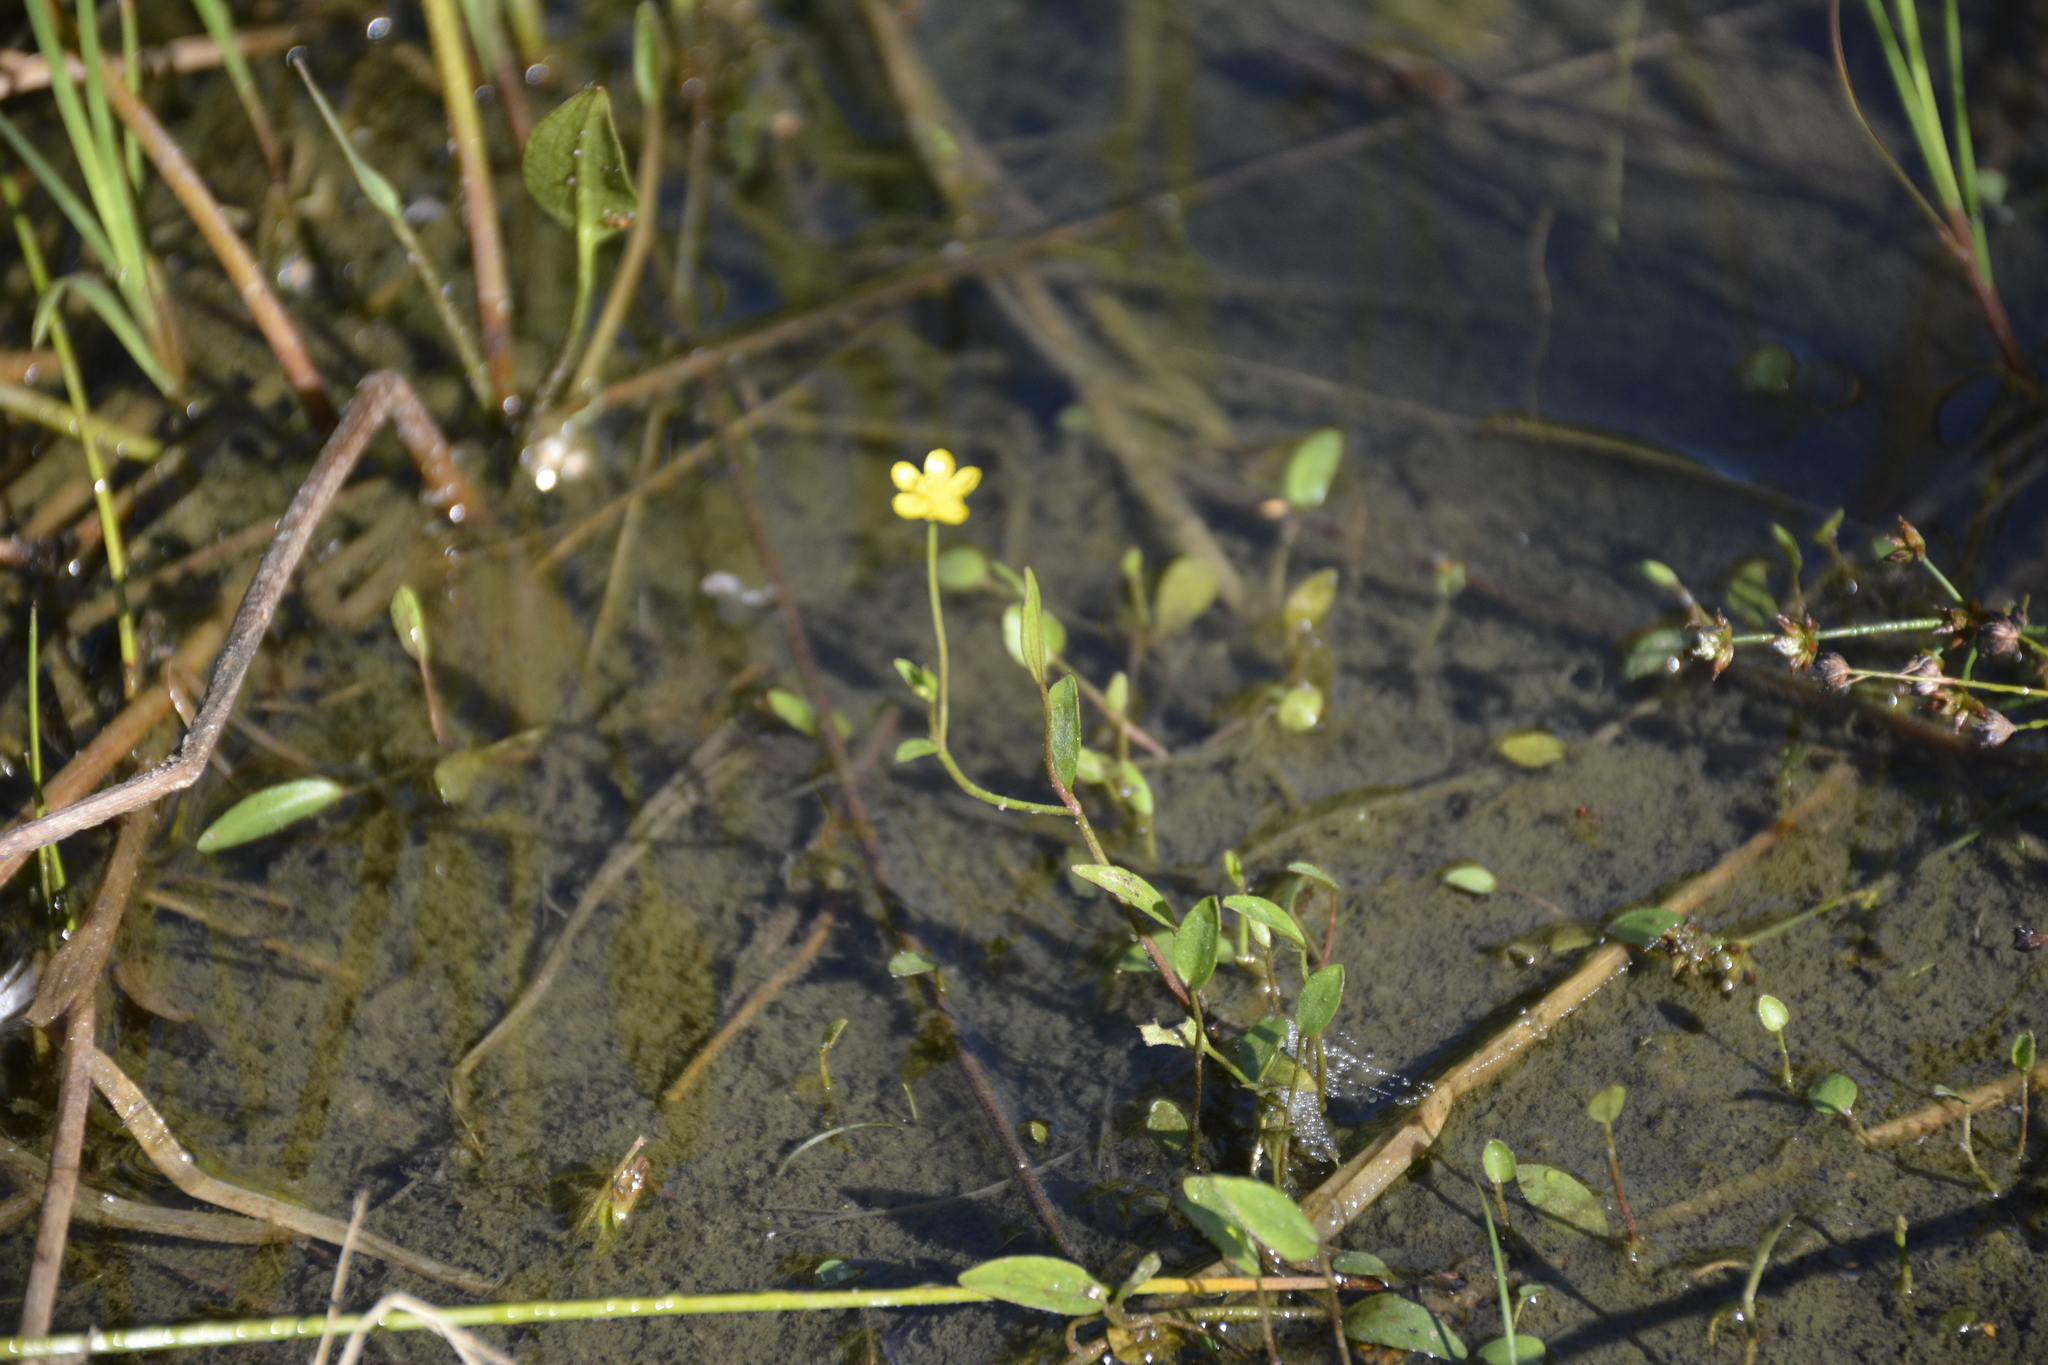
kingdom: Plantae
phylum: Tracheophyta
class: Magnoliopsida
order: Ranunculales
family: Ranunculaceae
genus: Ranunculus
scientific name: Ranunculus flammula
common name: Lesser spearwort
